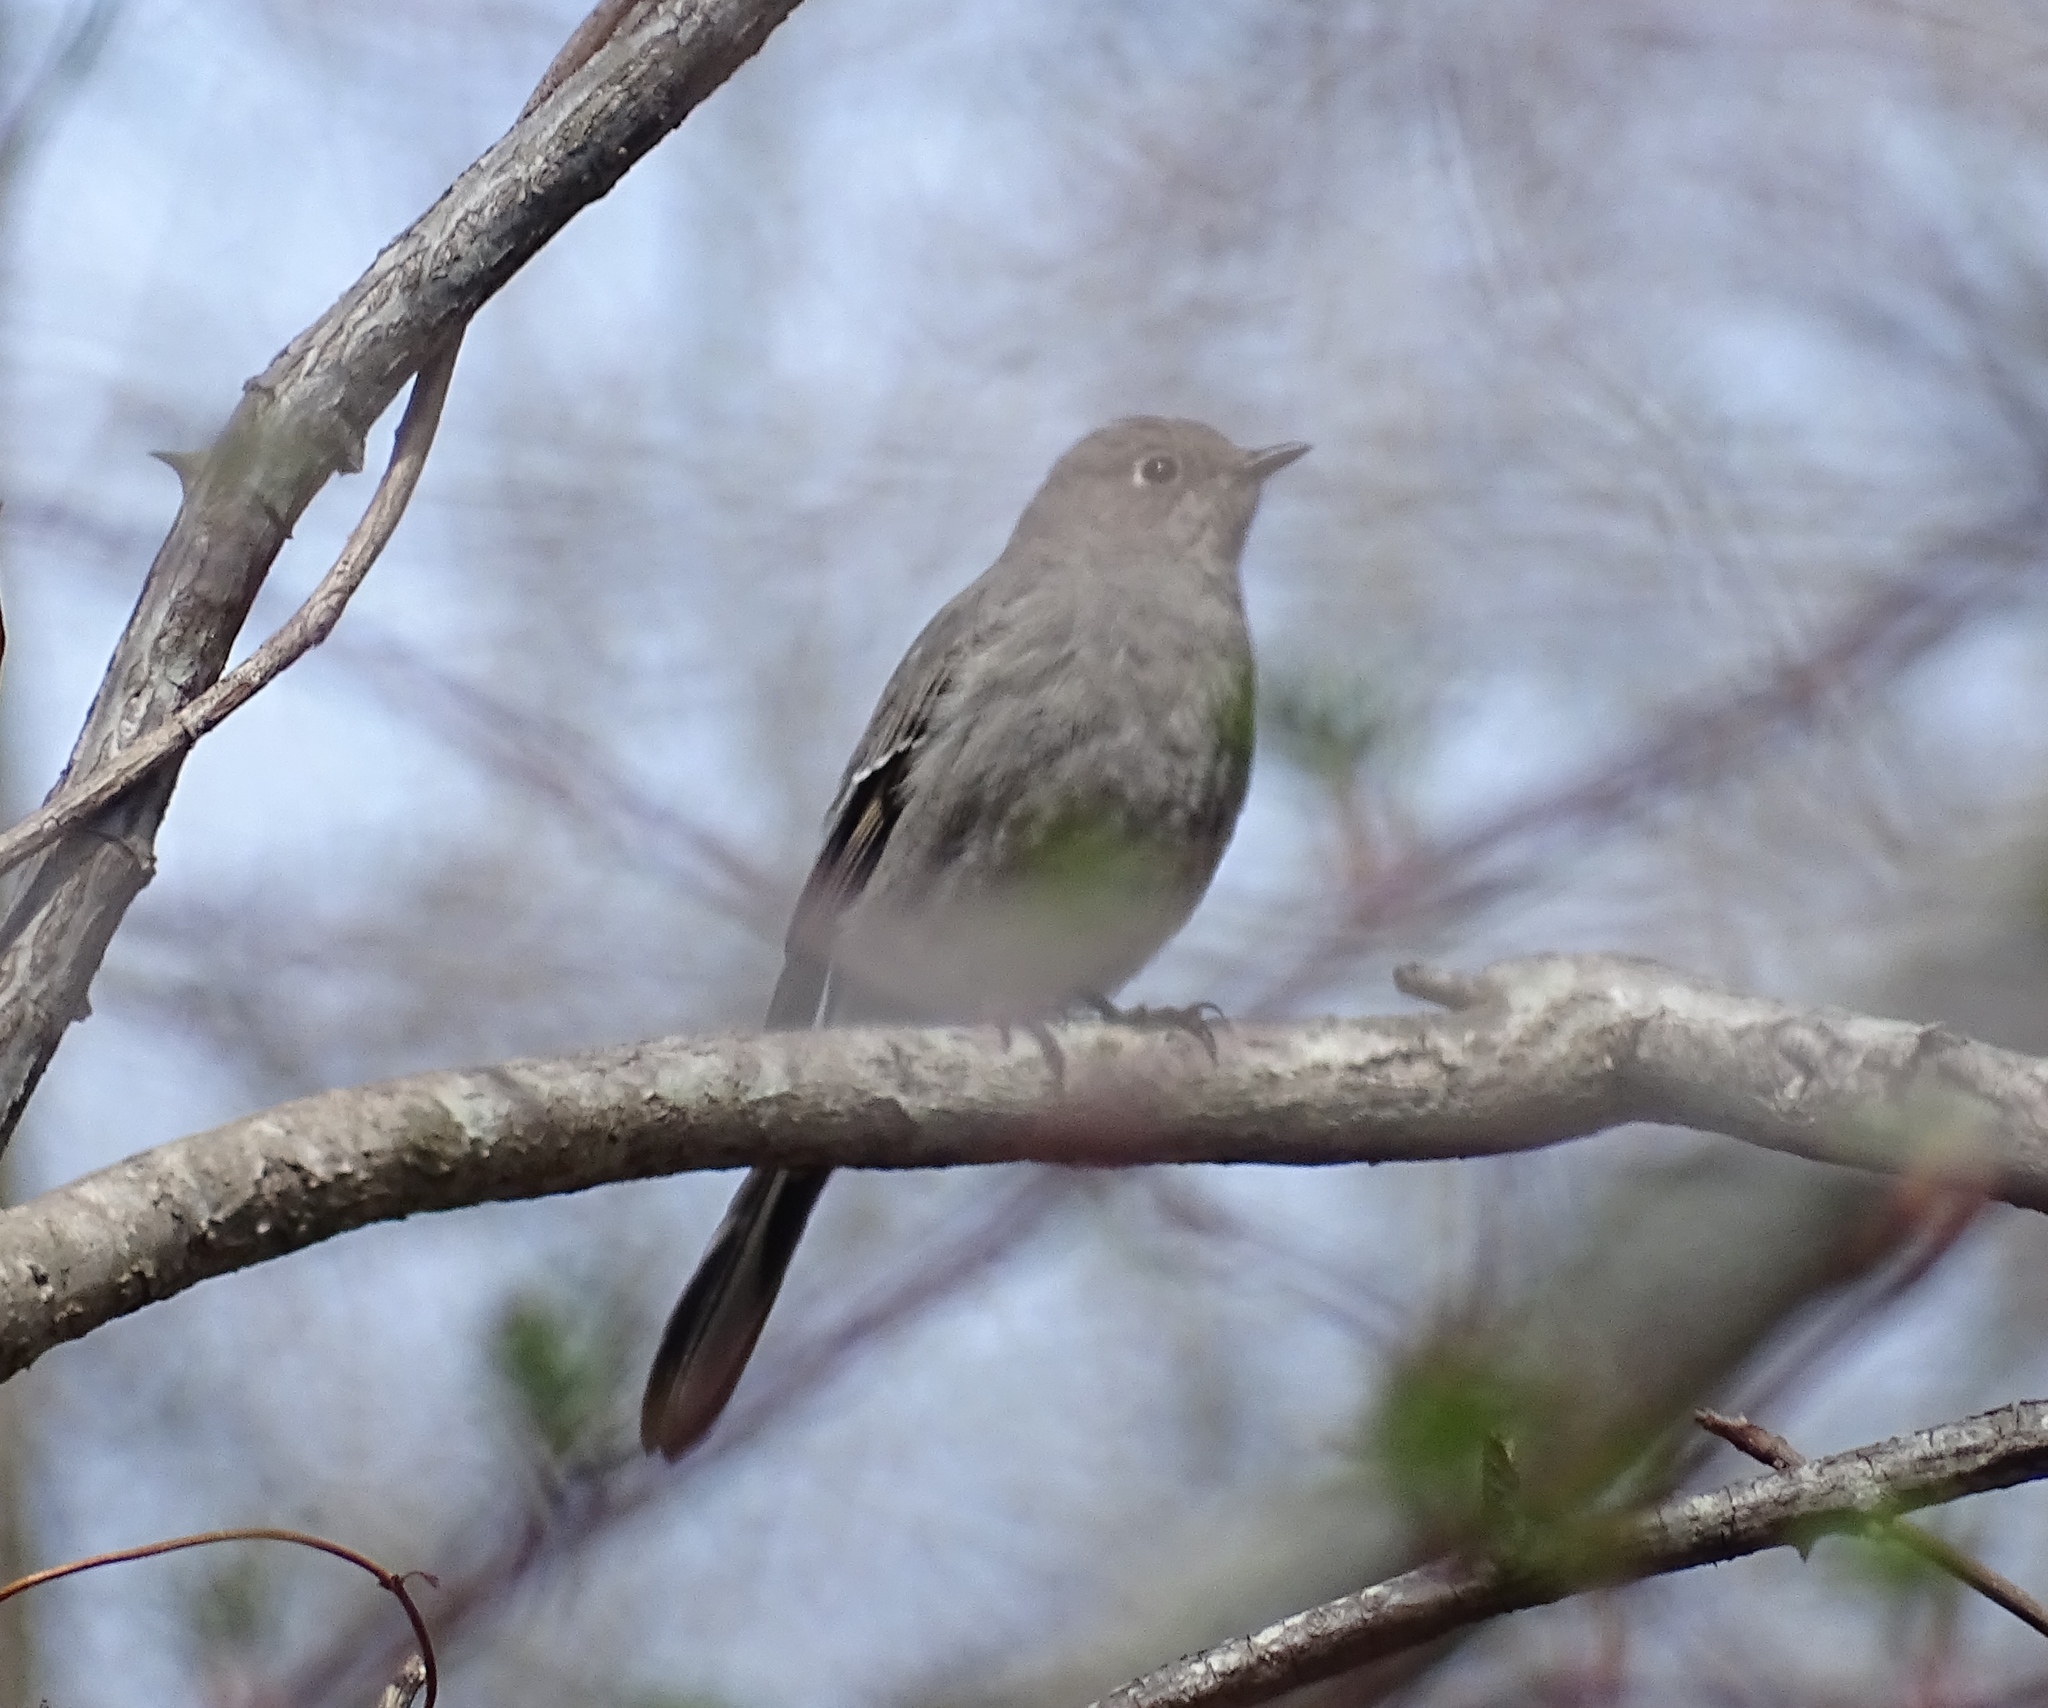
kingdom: Animalia
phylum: Chordata
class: Aves
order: Passeriformes
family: Turdidae
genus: Myadestes
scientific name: Myadestes townsendi
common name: Townsend's solitaire
